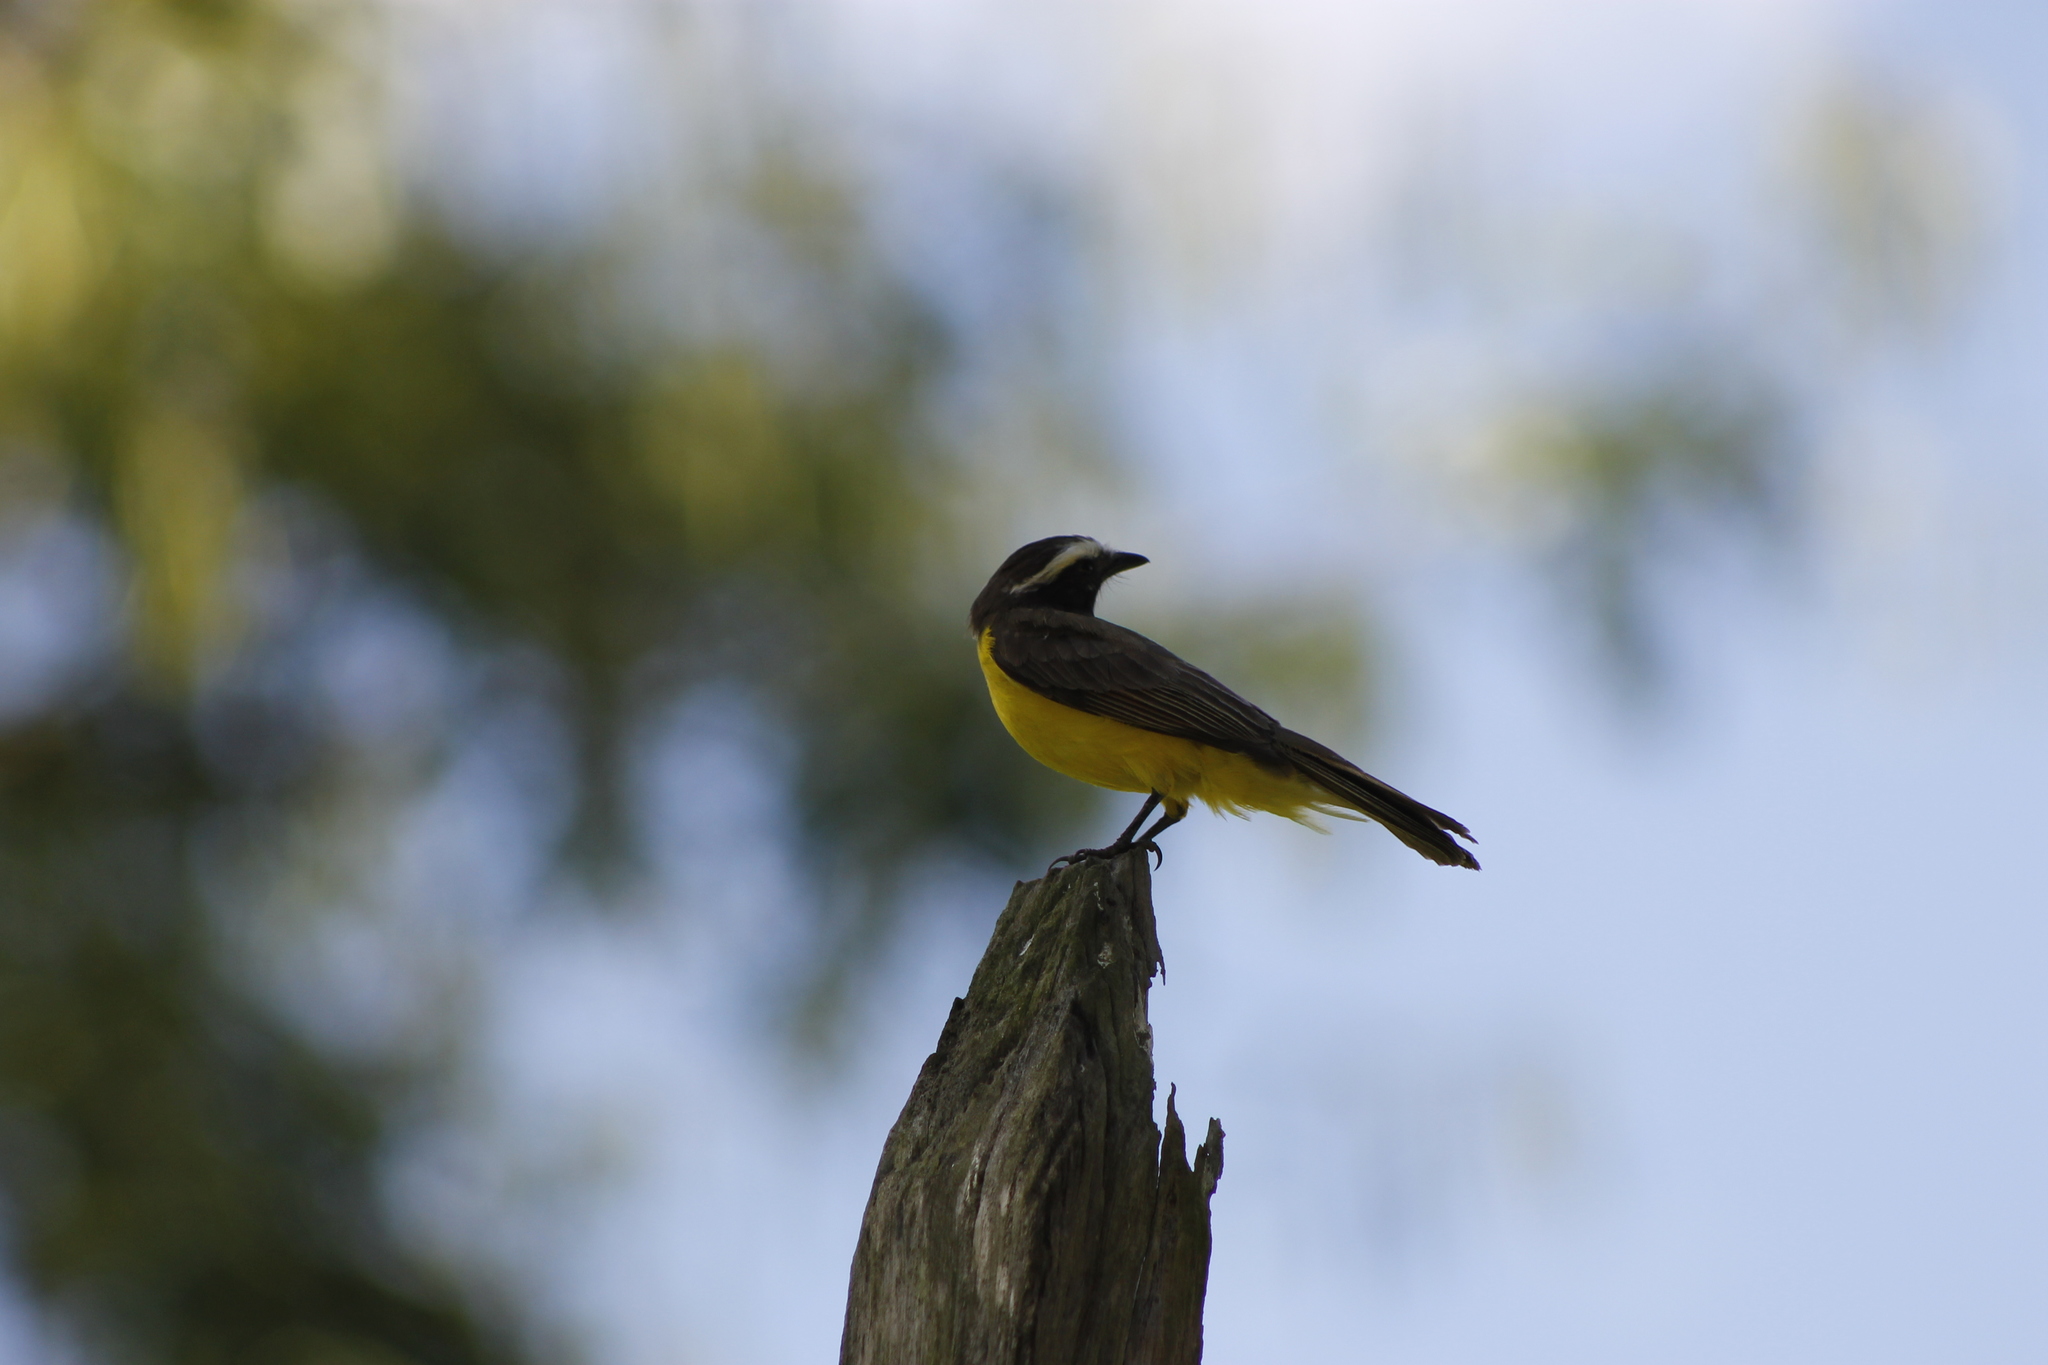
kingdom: Animalia
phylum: Chordata
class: Aves
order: Passeriformes
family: Tyrannidae
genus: Myiozetetes
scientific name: Myiozetetes cayanensis
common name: Rusty-margined flycatcher
